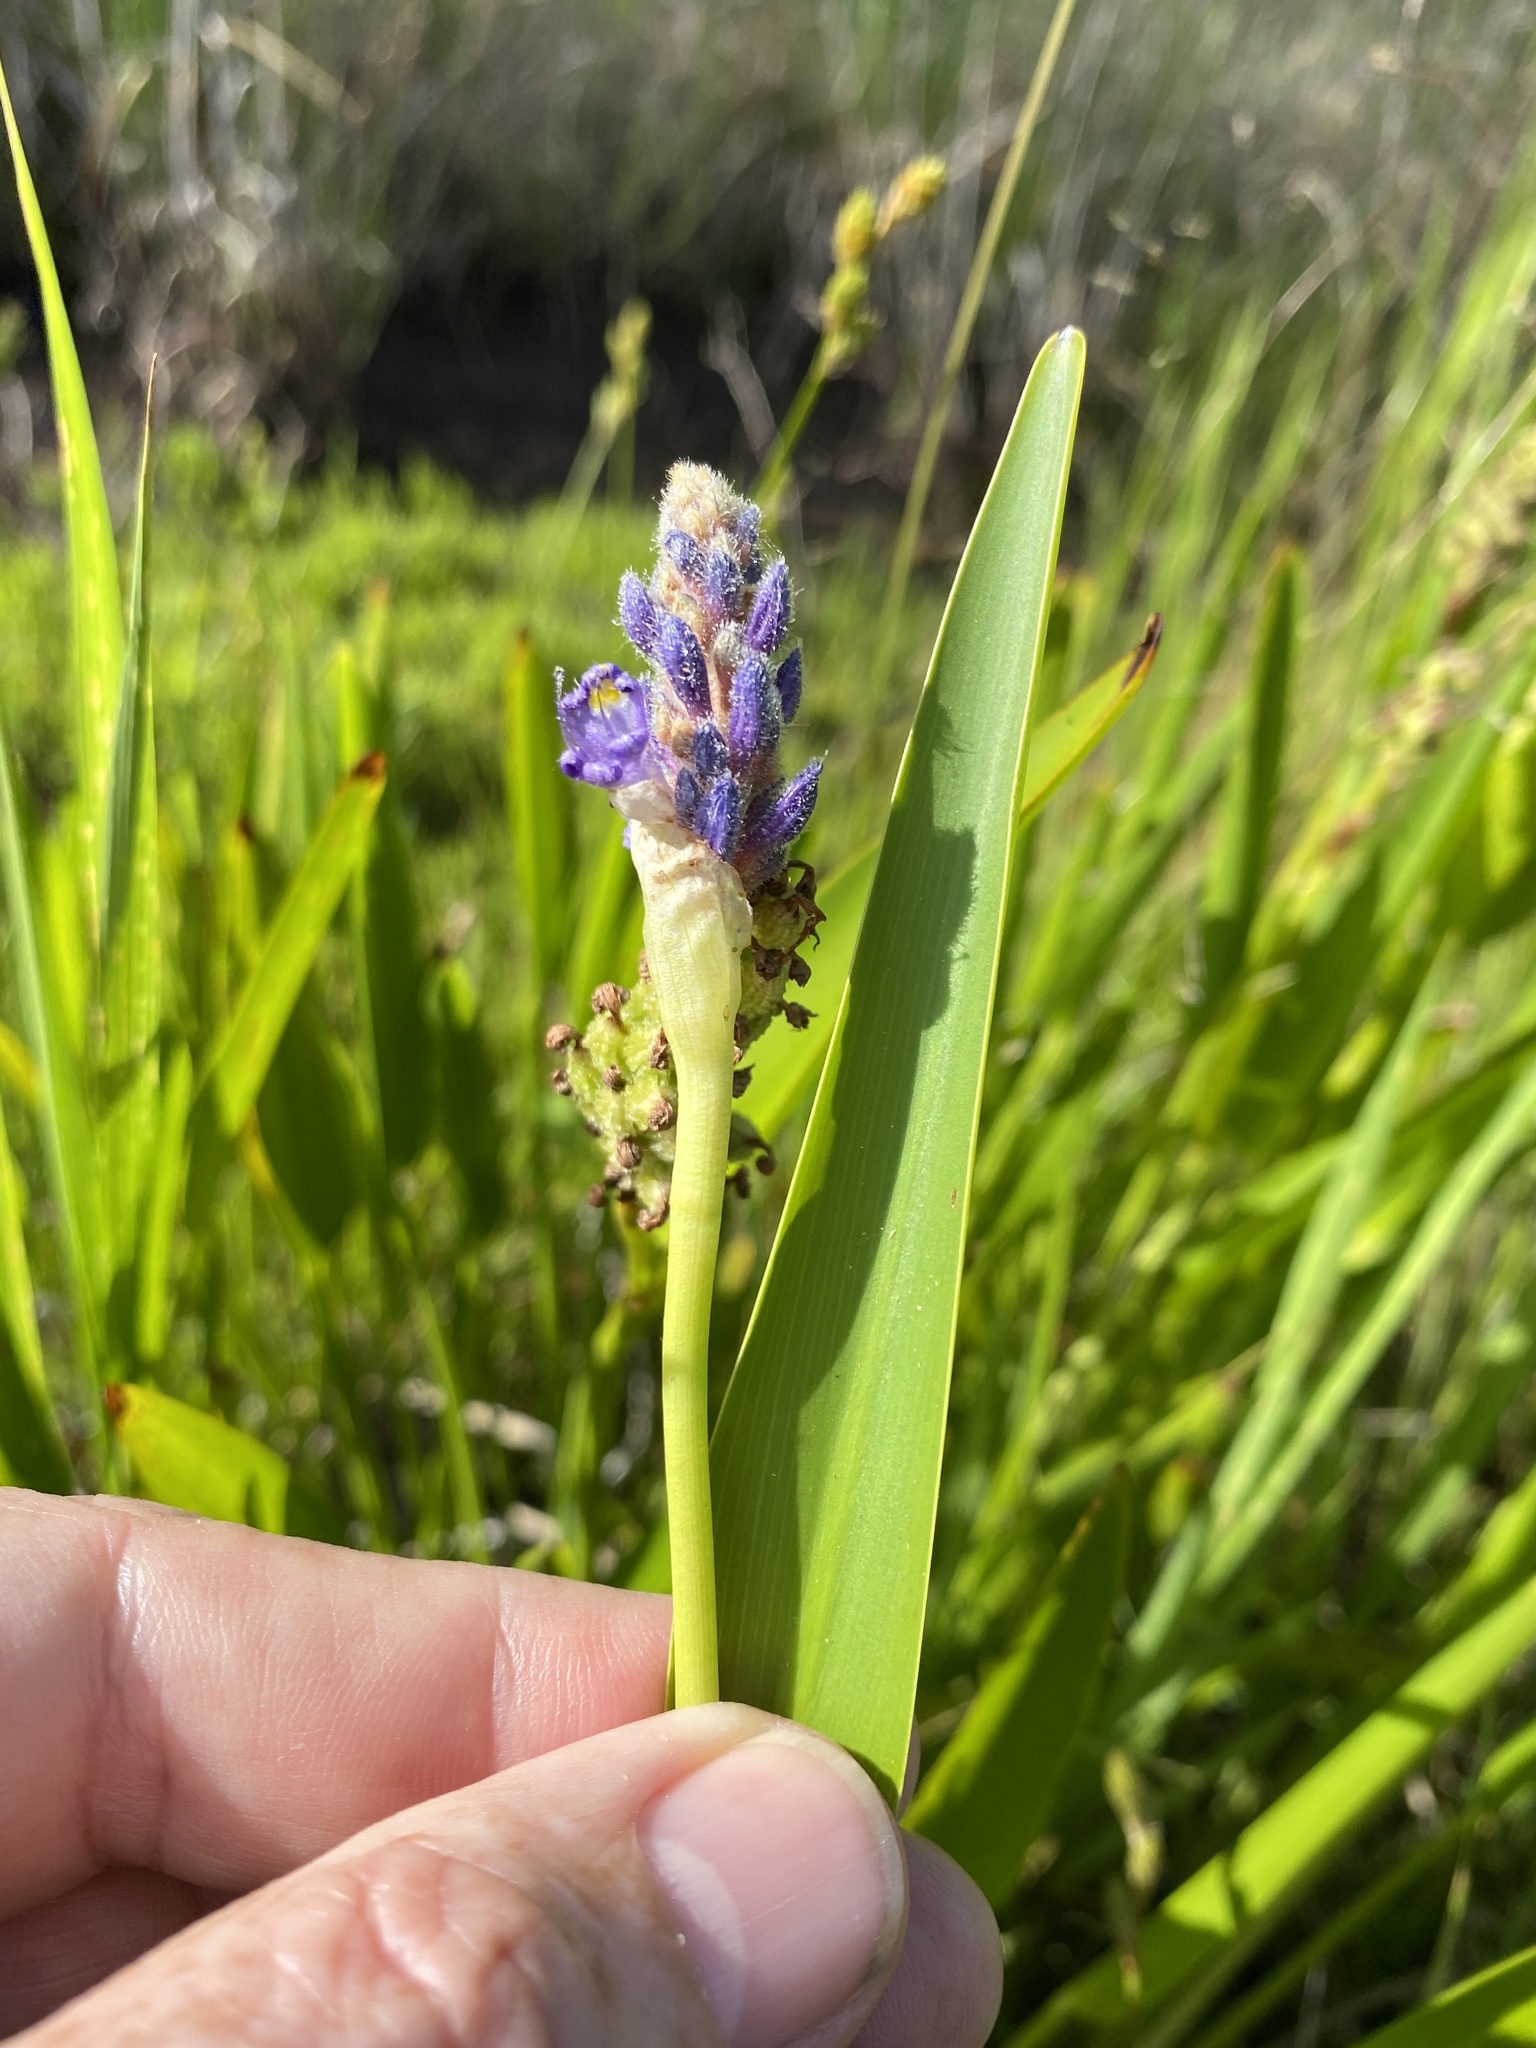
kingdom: Plantae
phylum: Tracheophyta
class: Liliopsida
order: Commelinales
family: Pontederiaceae
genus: Pontederia
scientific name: Pontederia cordata
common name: Pickerelweed
